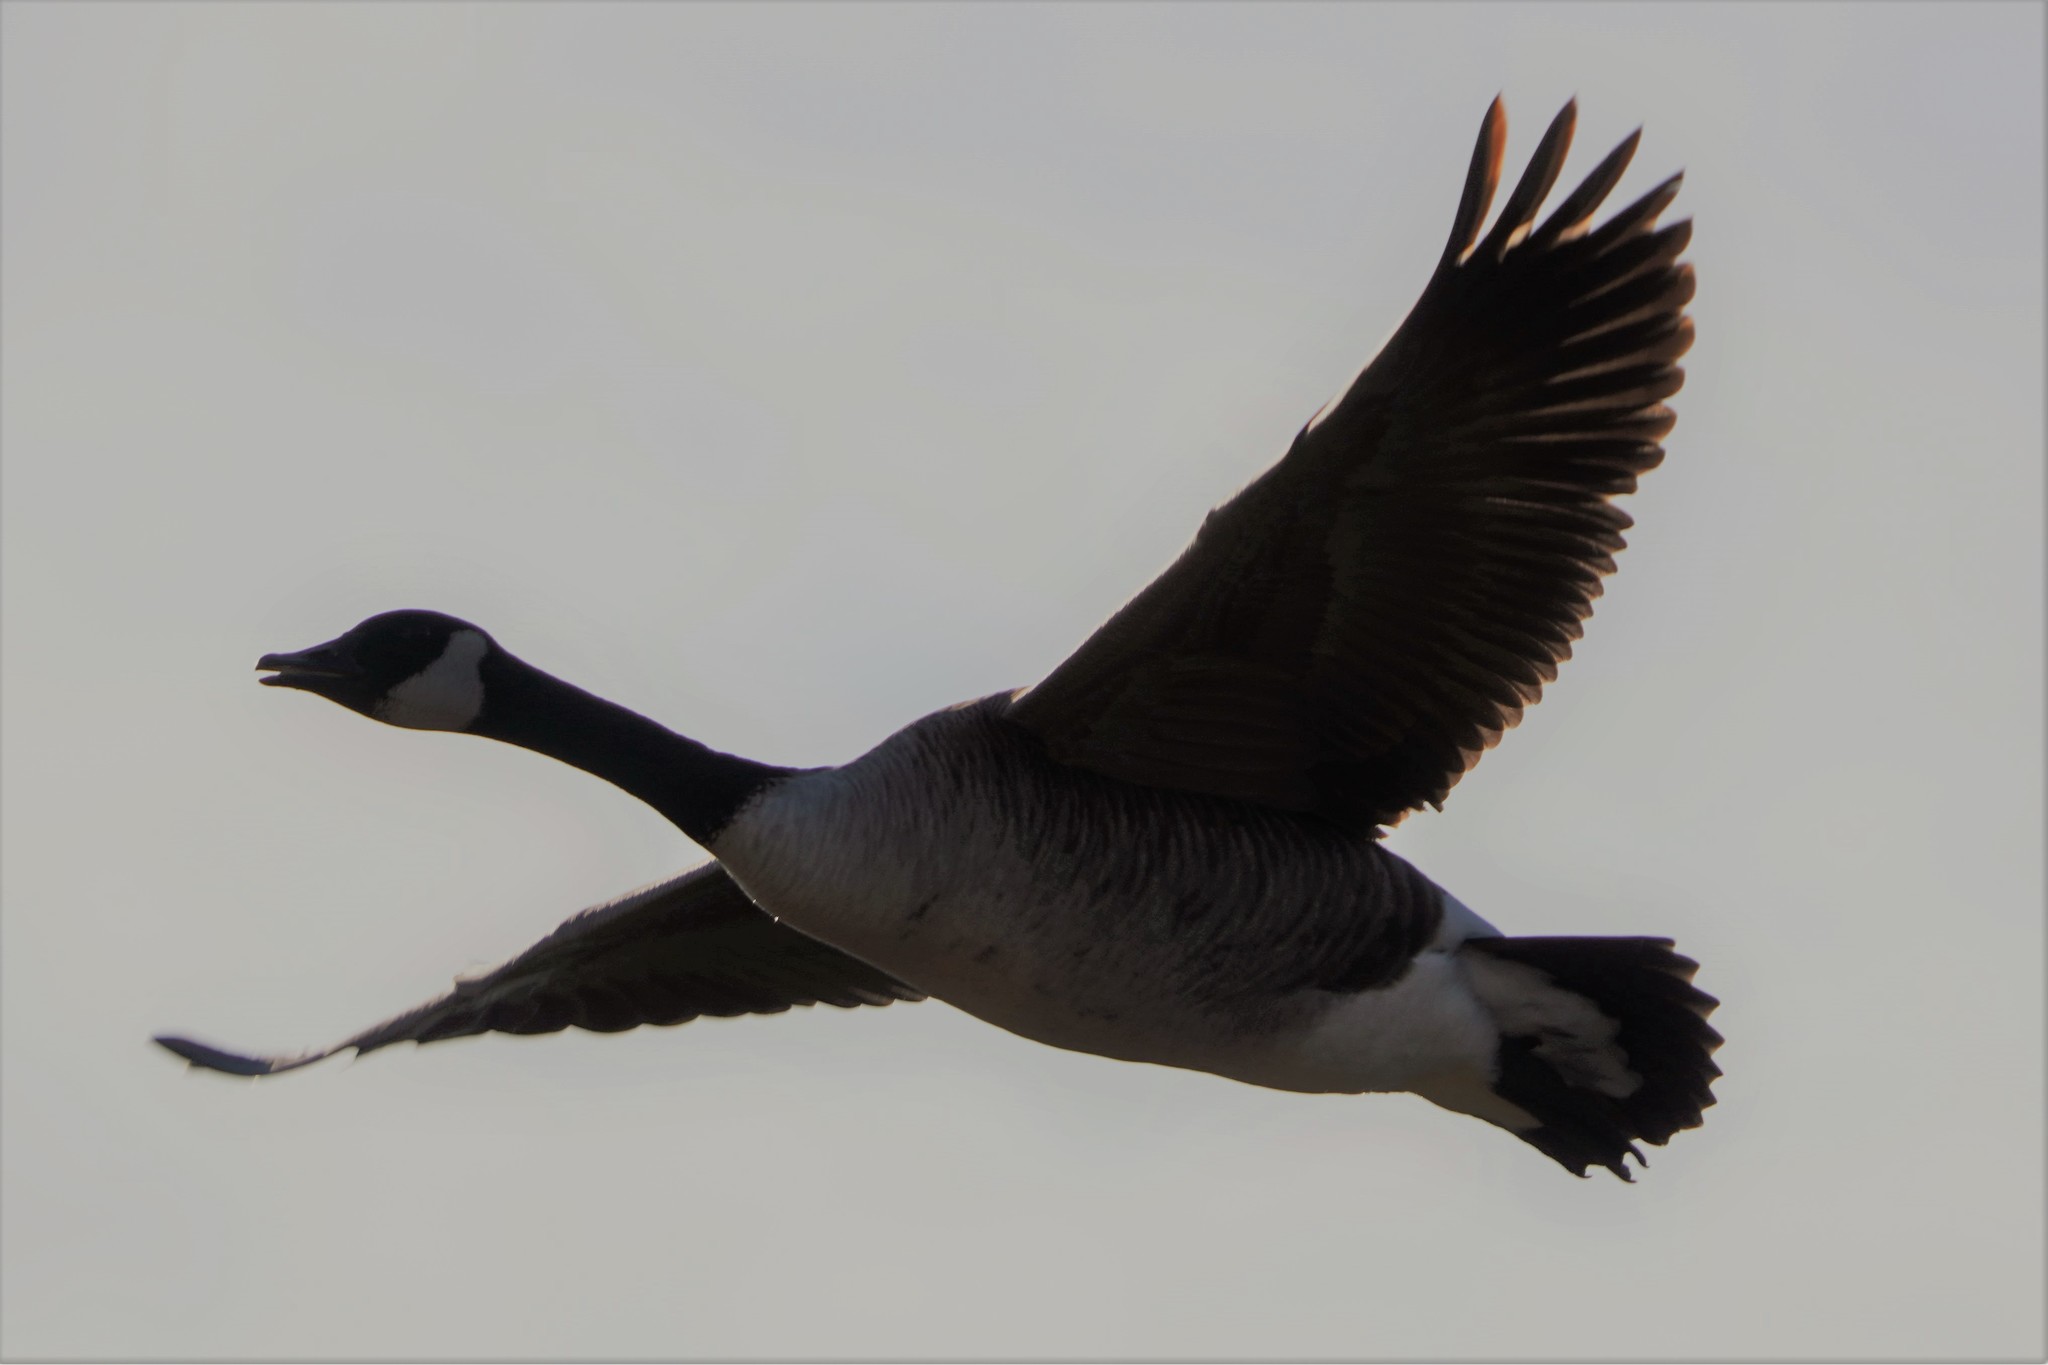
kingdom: Animalia
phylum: Chordata
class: Aves
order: Anseriformes
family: Anatidae
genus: Branta
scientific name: Branta canadensis
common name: Canada goose
